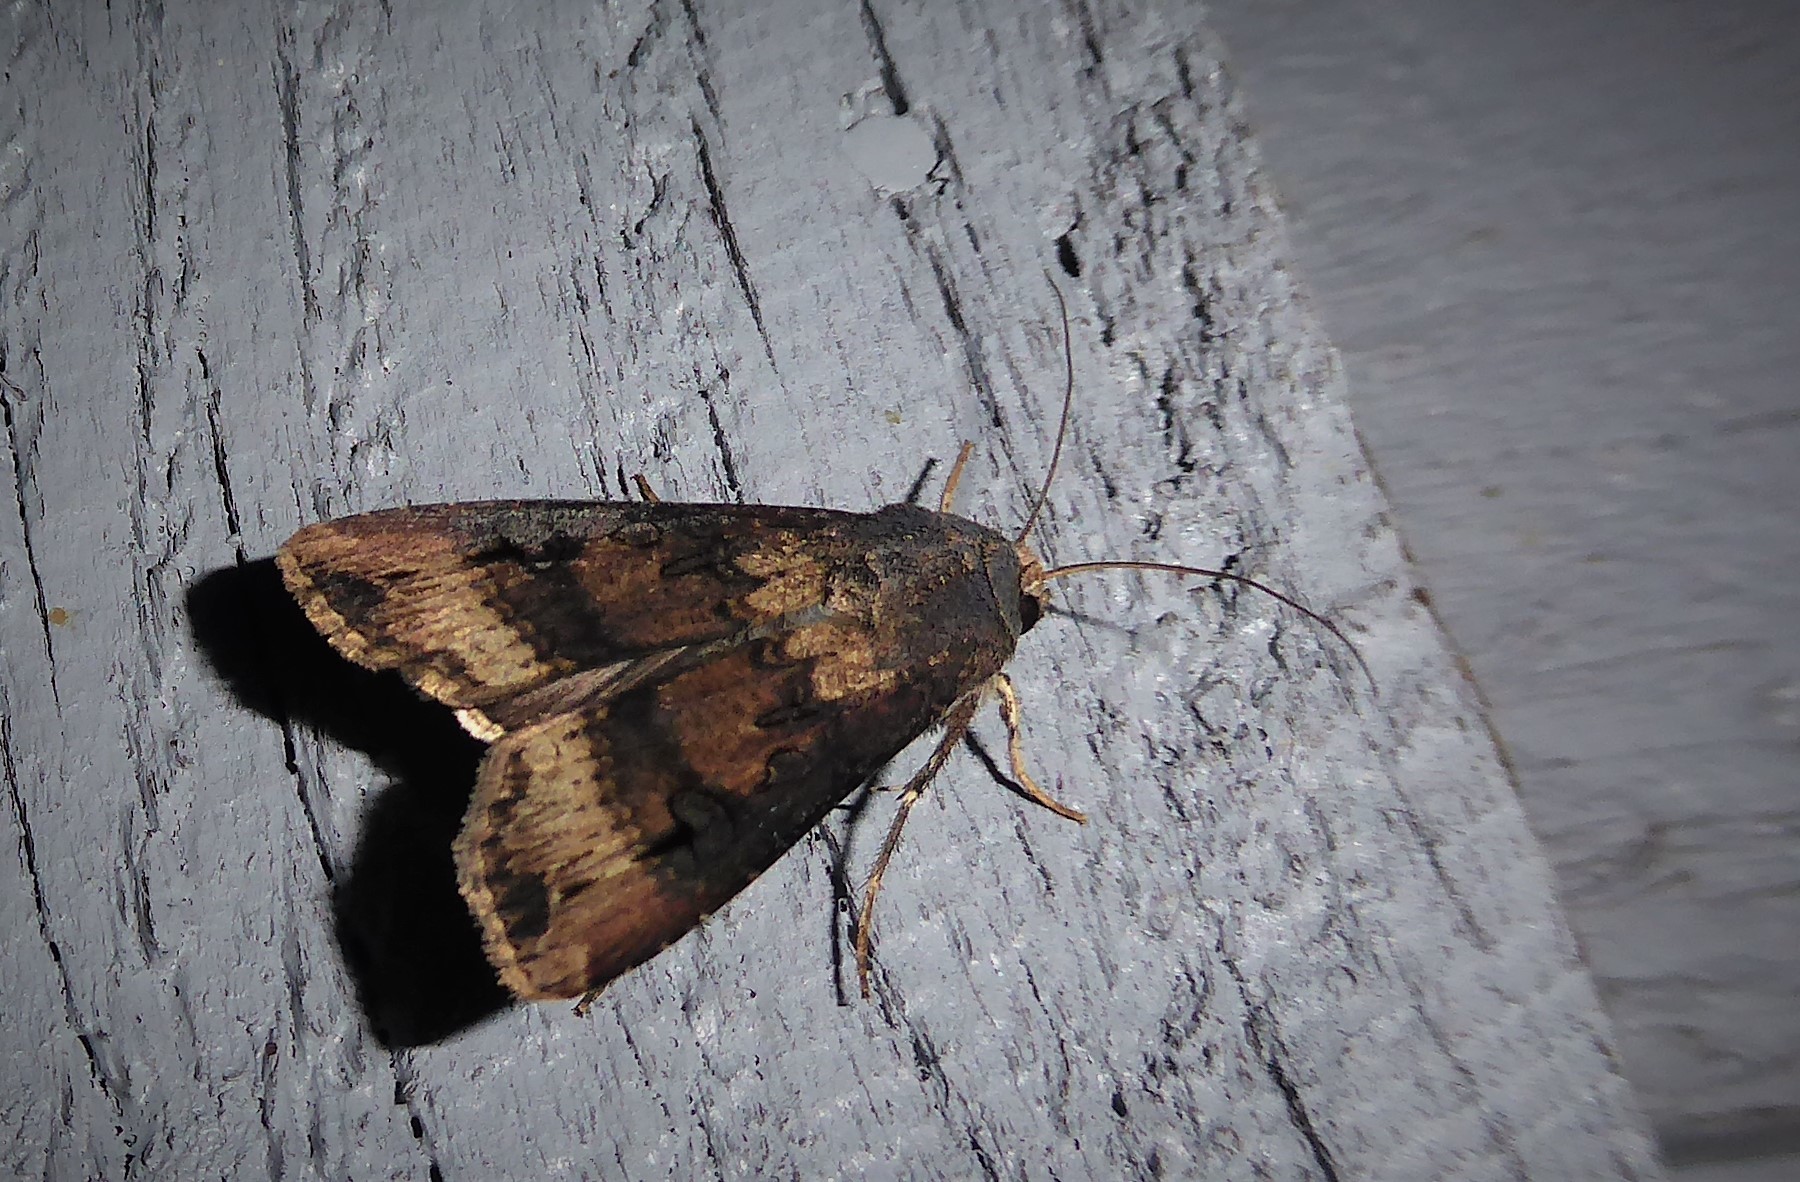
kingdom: Animalia
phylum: Arthropoda
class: Insecta
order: Lepidoptera
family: Noctuidae
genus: Agrotis
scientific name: Agrotis ipsilon
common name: Dark sword-grass
